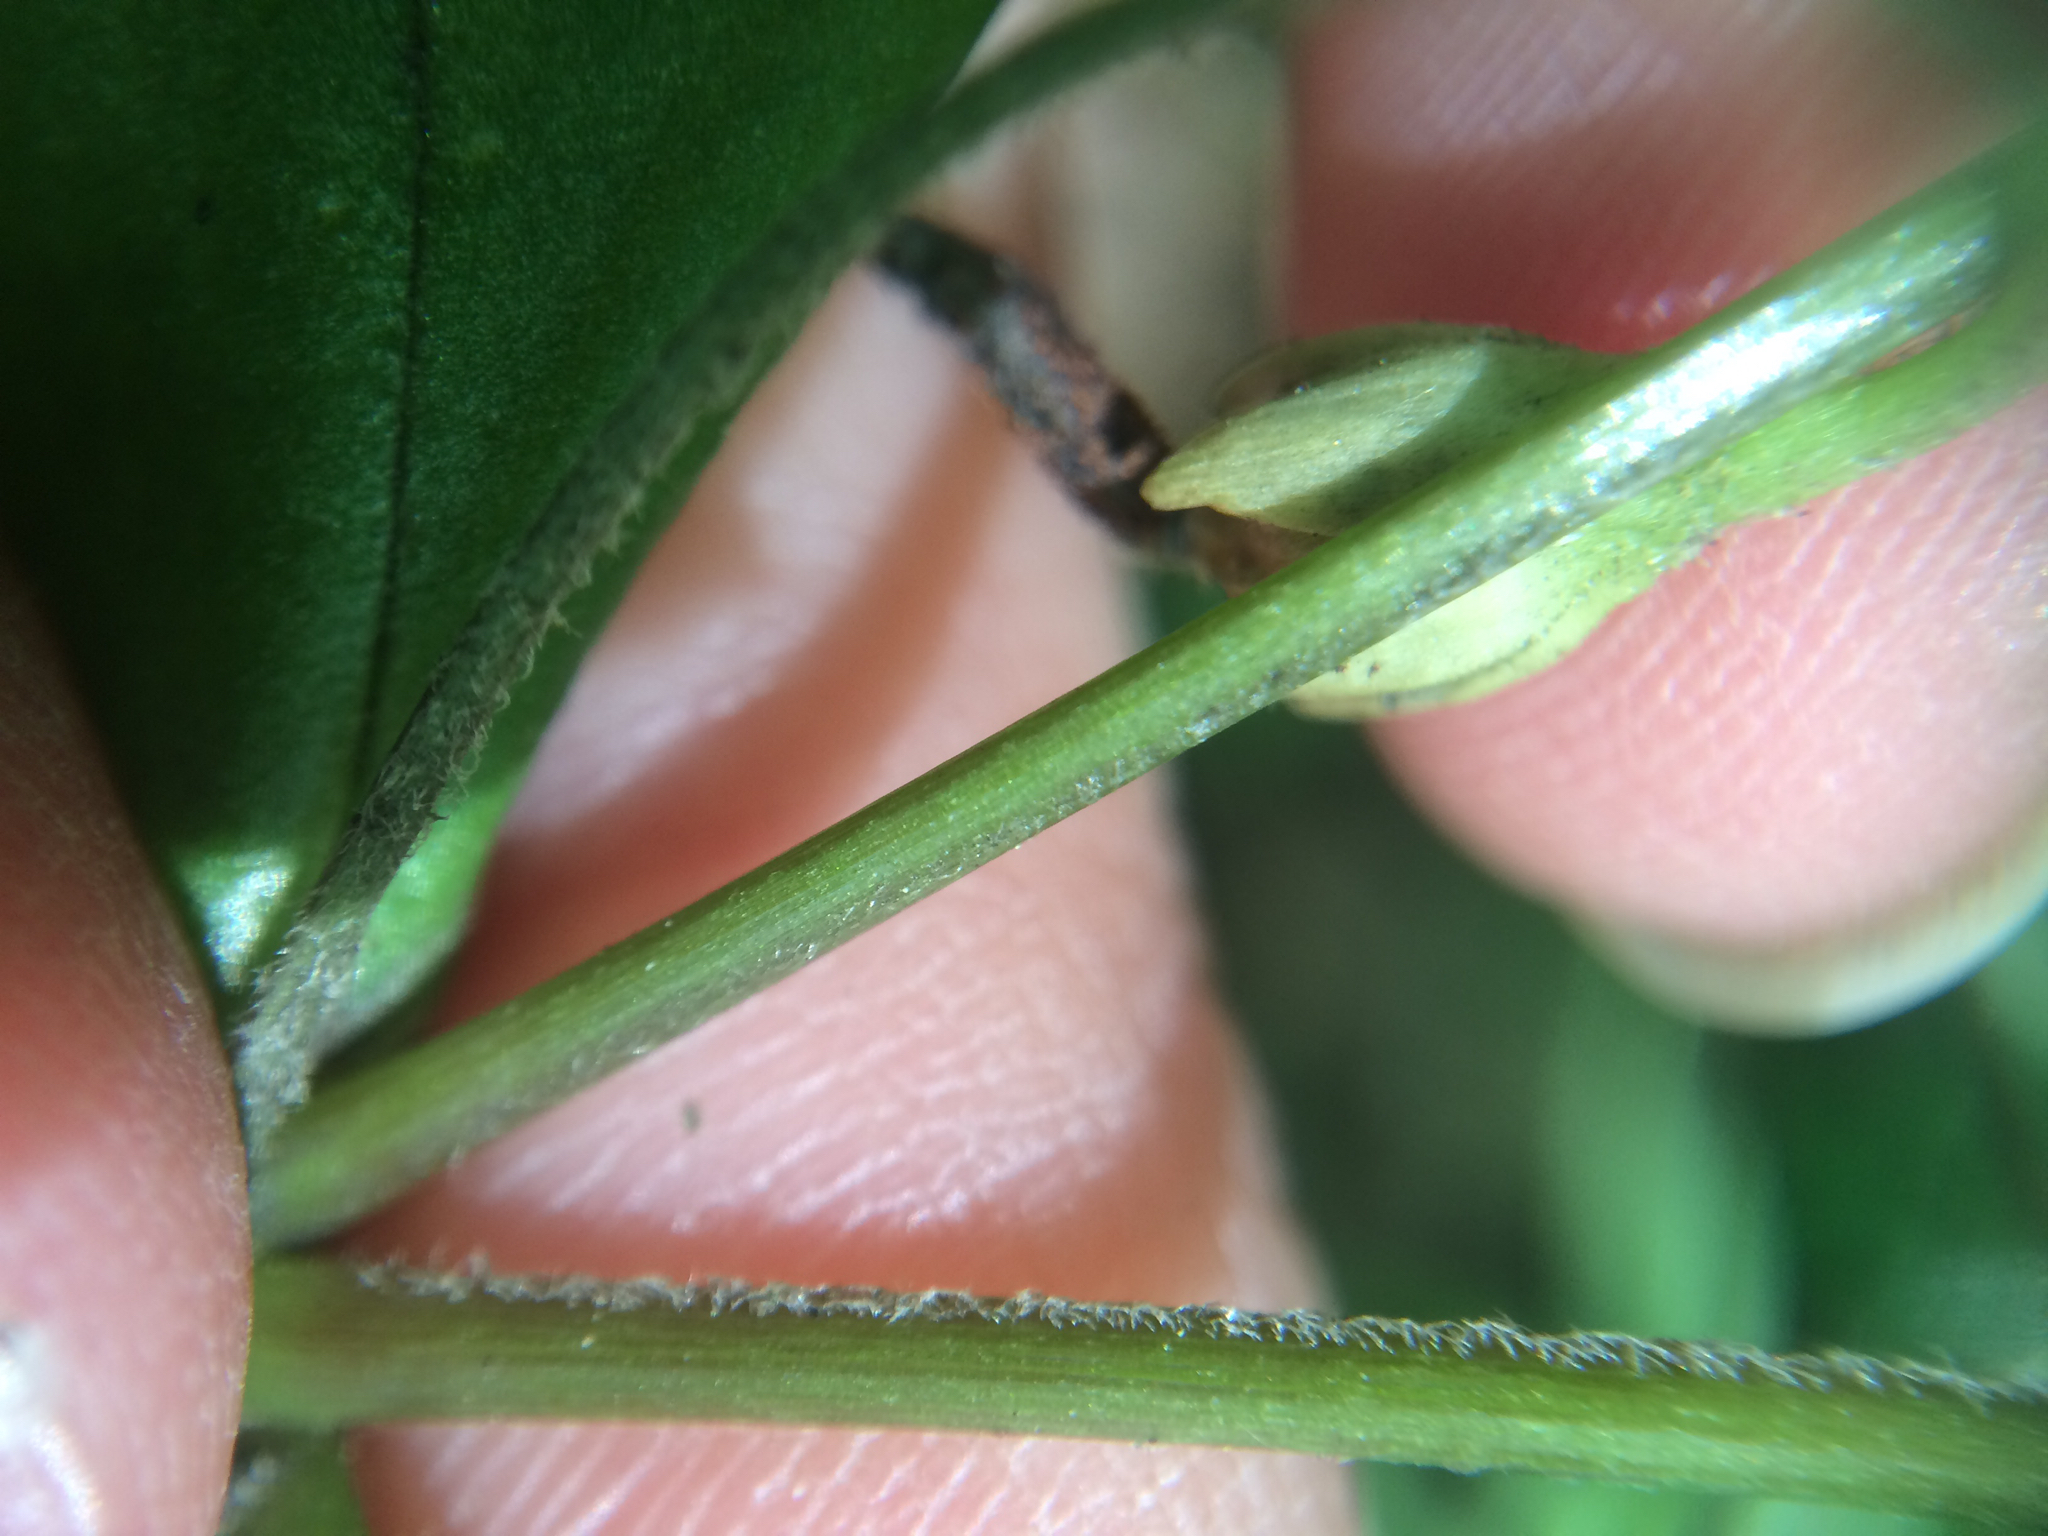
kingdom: Plantae
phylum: Tracheophyta
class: Magnoliopsida
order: Caryophyllales
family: Caryophyllaceae
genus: Stellaria
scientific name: Stellaria pubera
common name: Star chickweed
